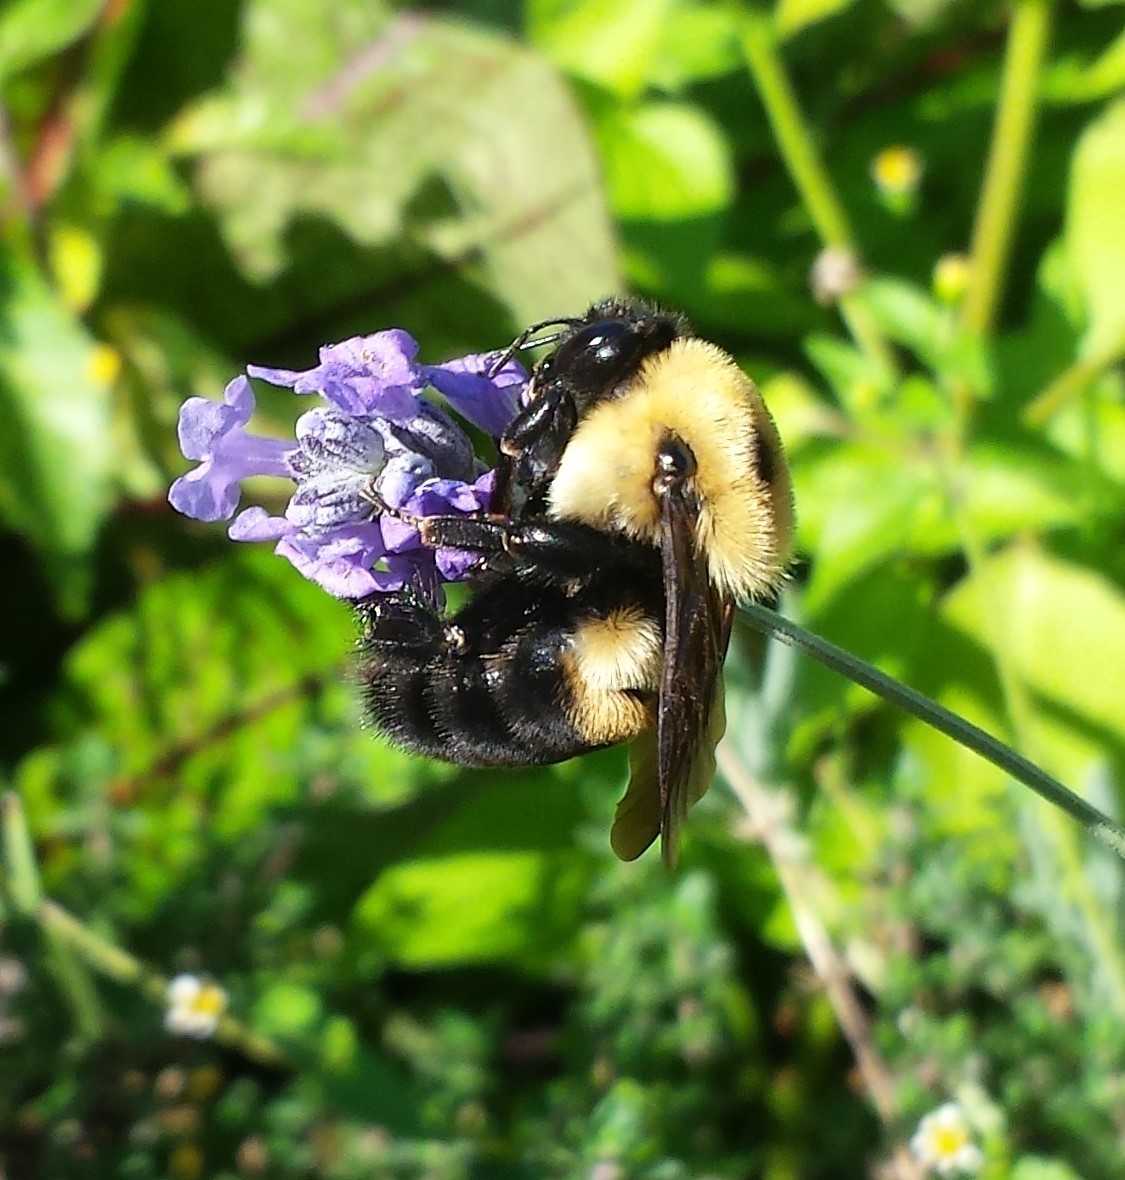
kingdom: Animalia
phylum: Arthropoda
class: Insecta
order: Hymenoptera
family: Apidae
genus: Bombus
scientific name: Bombus griseocollis
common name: Brown-belted bumble bee
